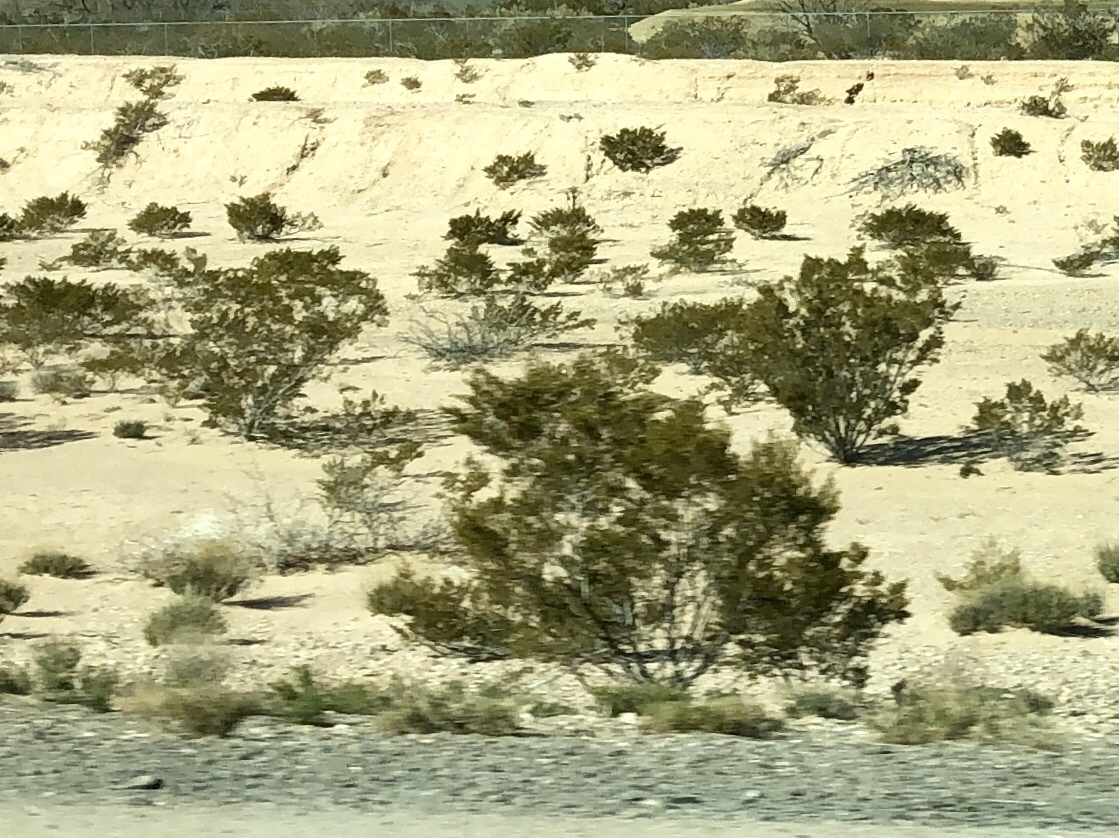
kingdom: Plantae
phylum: Tracheophyta
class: Magnoliopsida
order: Zygophyllales
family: Zygophyllaceae
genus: Larrea
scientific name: Larrea tridentata
